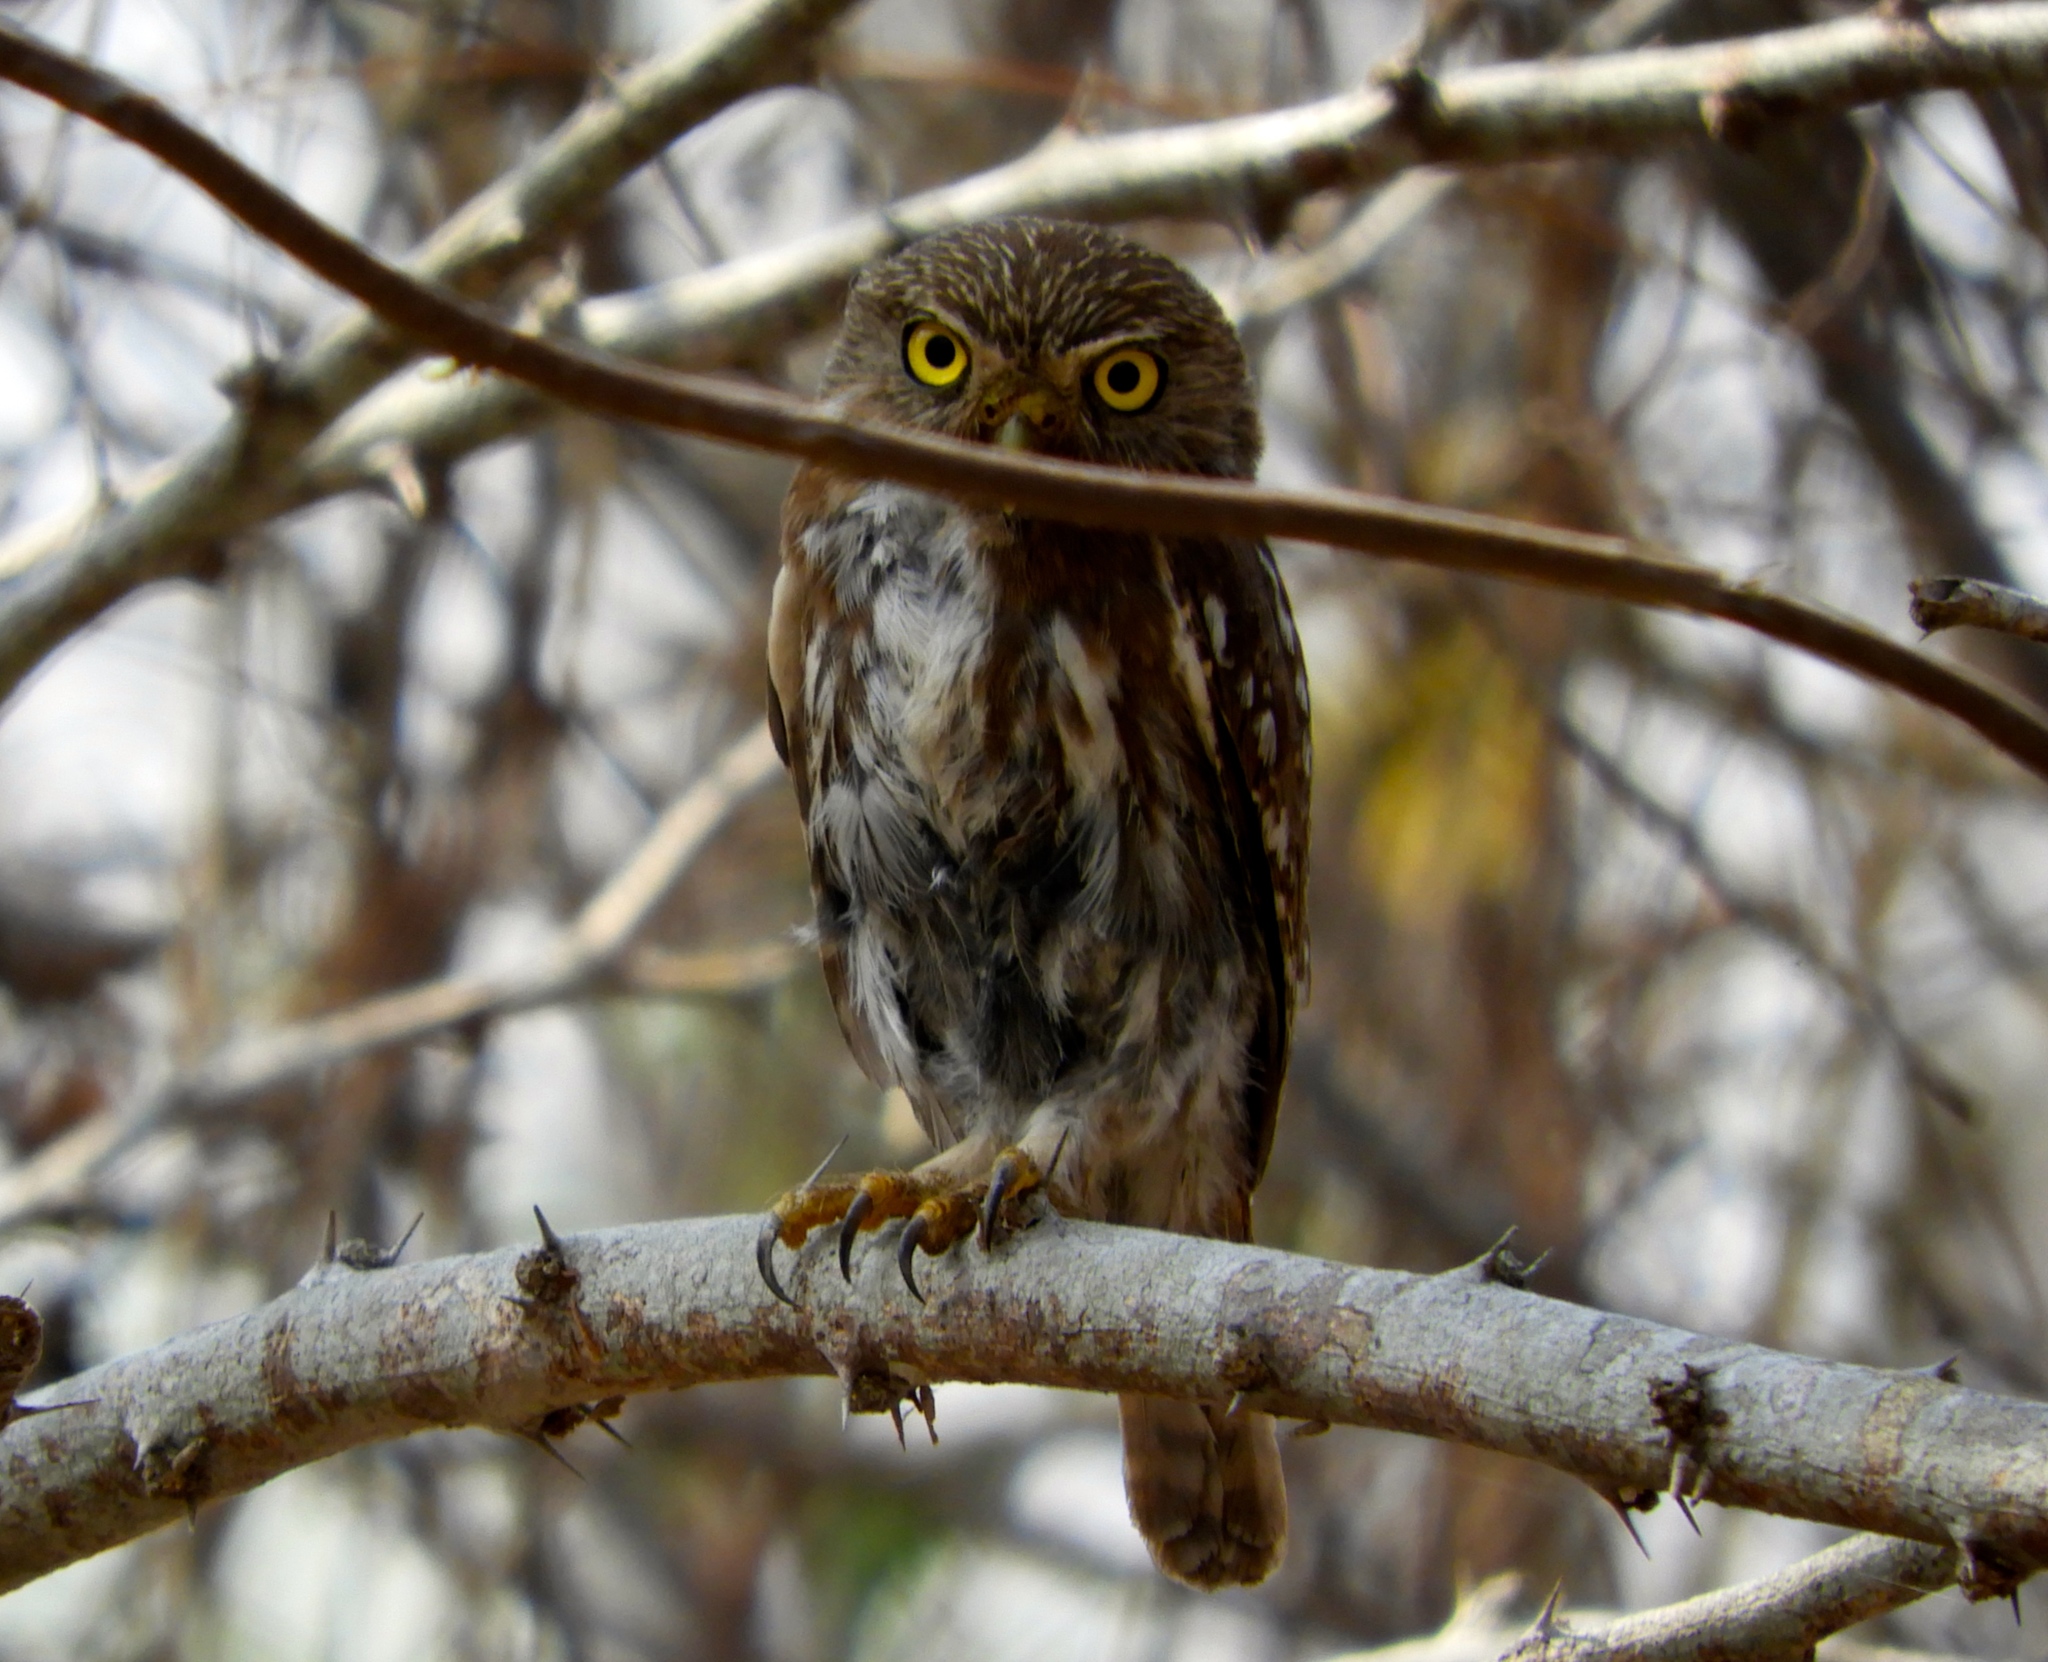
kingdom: Animalia
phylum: Chordata
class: Aves
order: Strigiformes
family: Strigidae
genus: Glaucidium
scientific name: Glaucidium brasilianum
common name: Ferruginous pygmy-owl
